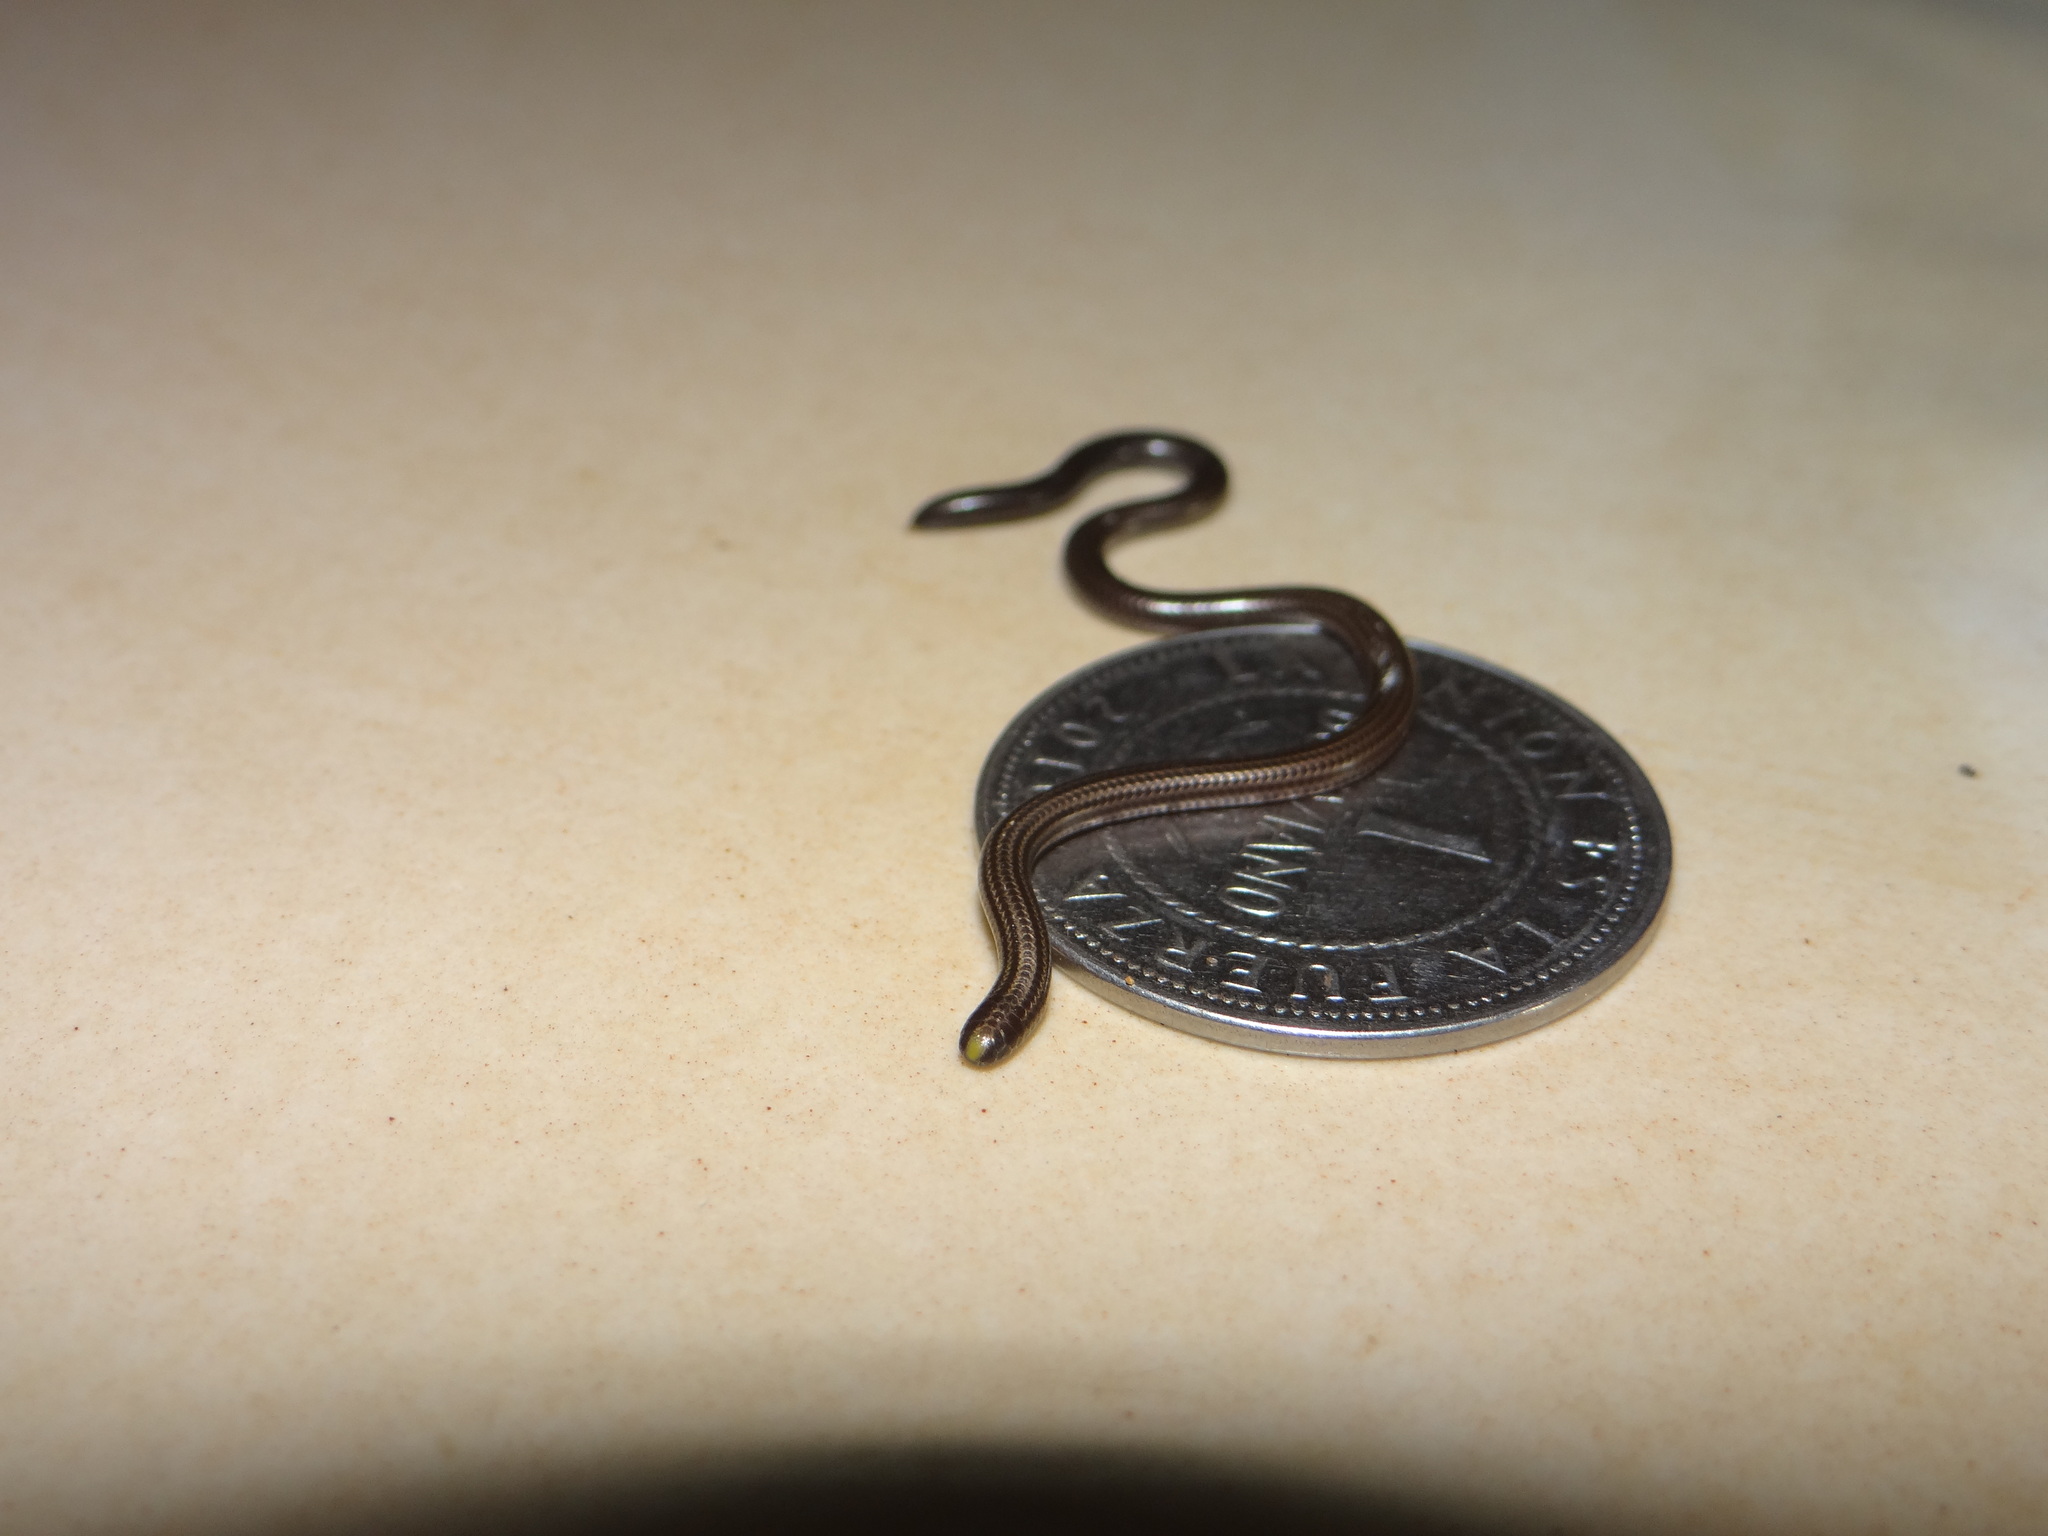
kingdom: Animalia
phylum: Chordata
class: Squamata
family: Leptotyphlopidae
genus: Epictia
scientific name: Epictia tenella
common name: Guyana blind snake
